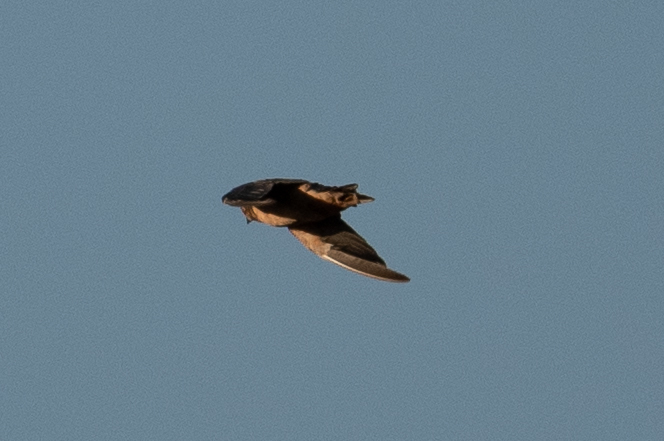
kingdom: Animalia
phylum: Chordata
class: Aves
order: Passeriformes
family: Hirundinidae
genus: Hirundo
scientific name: Hirundo rustica
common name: Barn swallow
